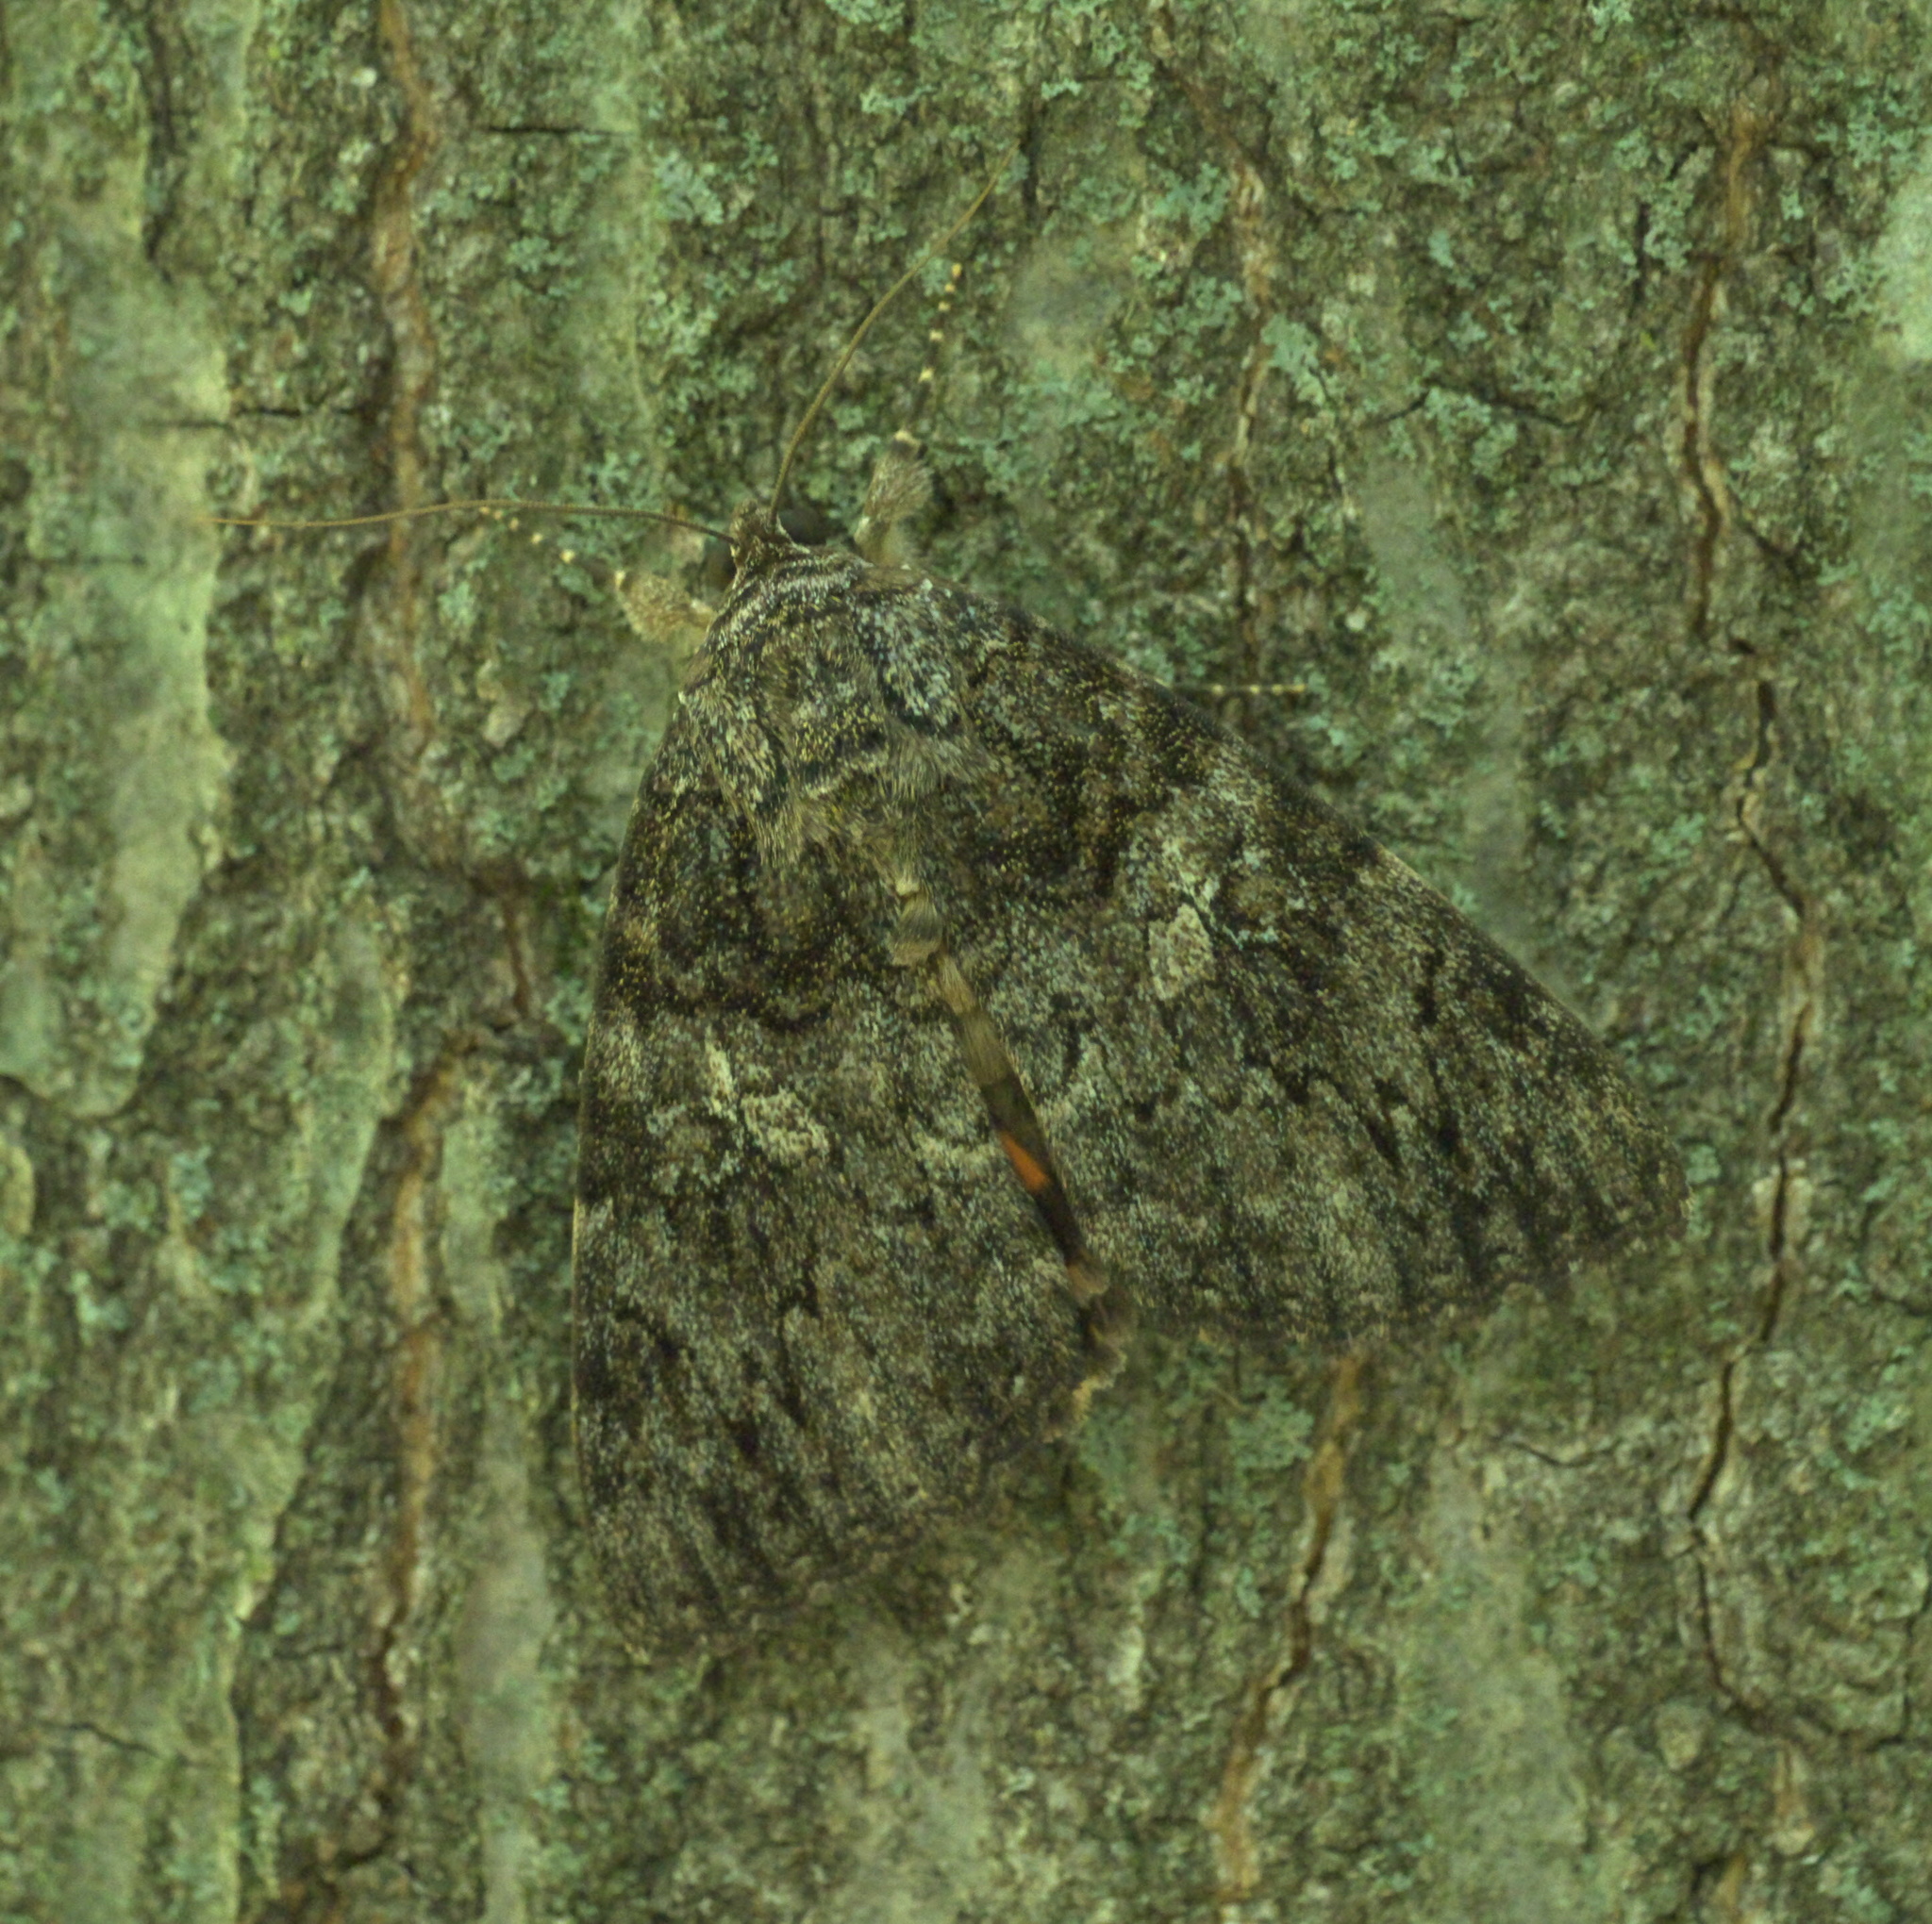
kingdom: Animalia
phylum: Arthropoda
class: Insecta
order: Lepidoptera
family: Erebidae
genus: Catocala
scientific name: Catocala ilia
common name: Ilia underwing
